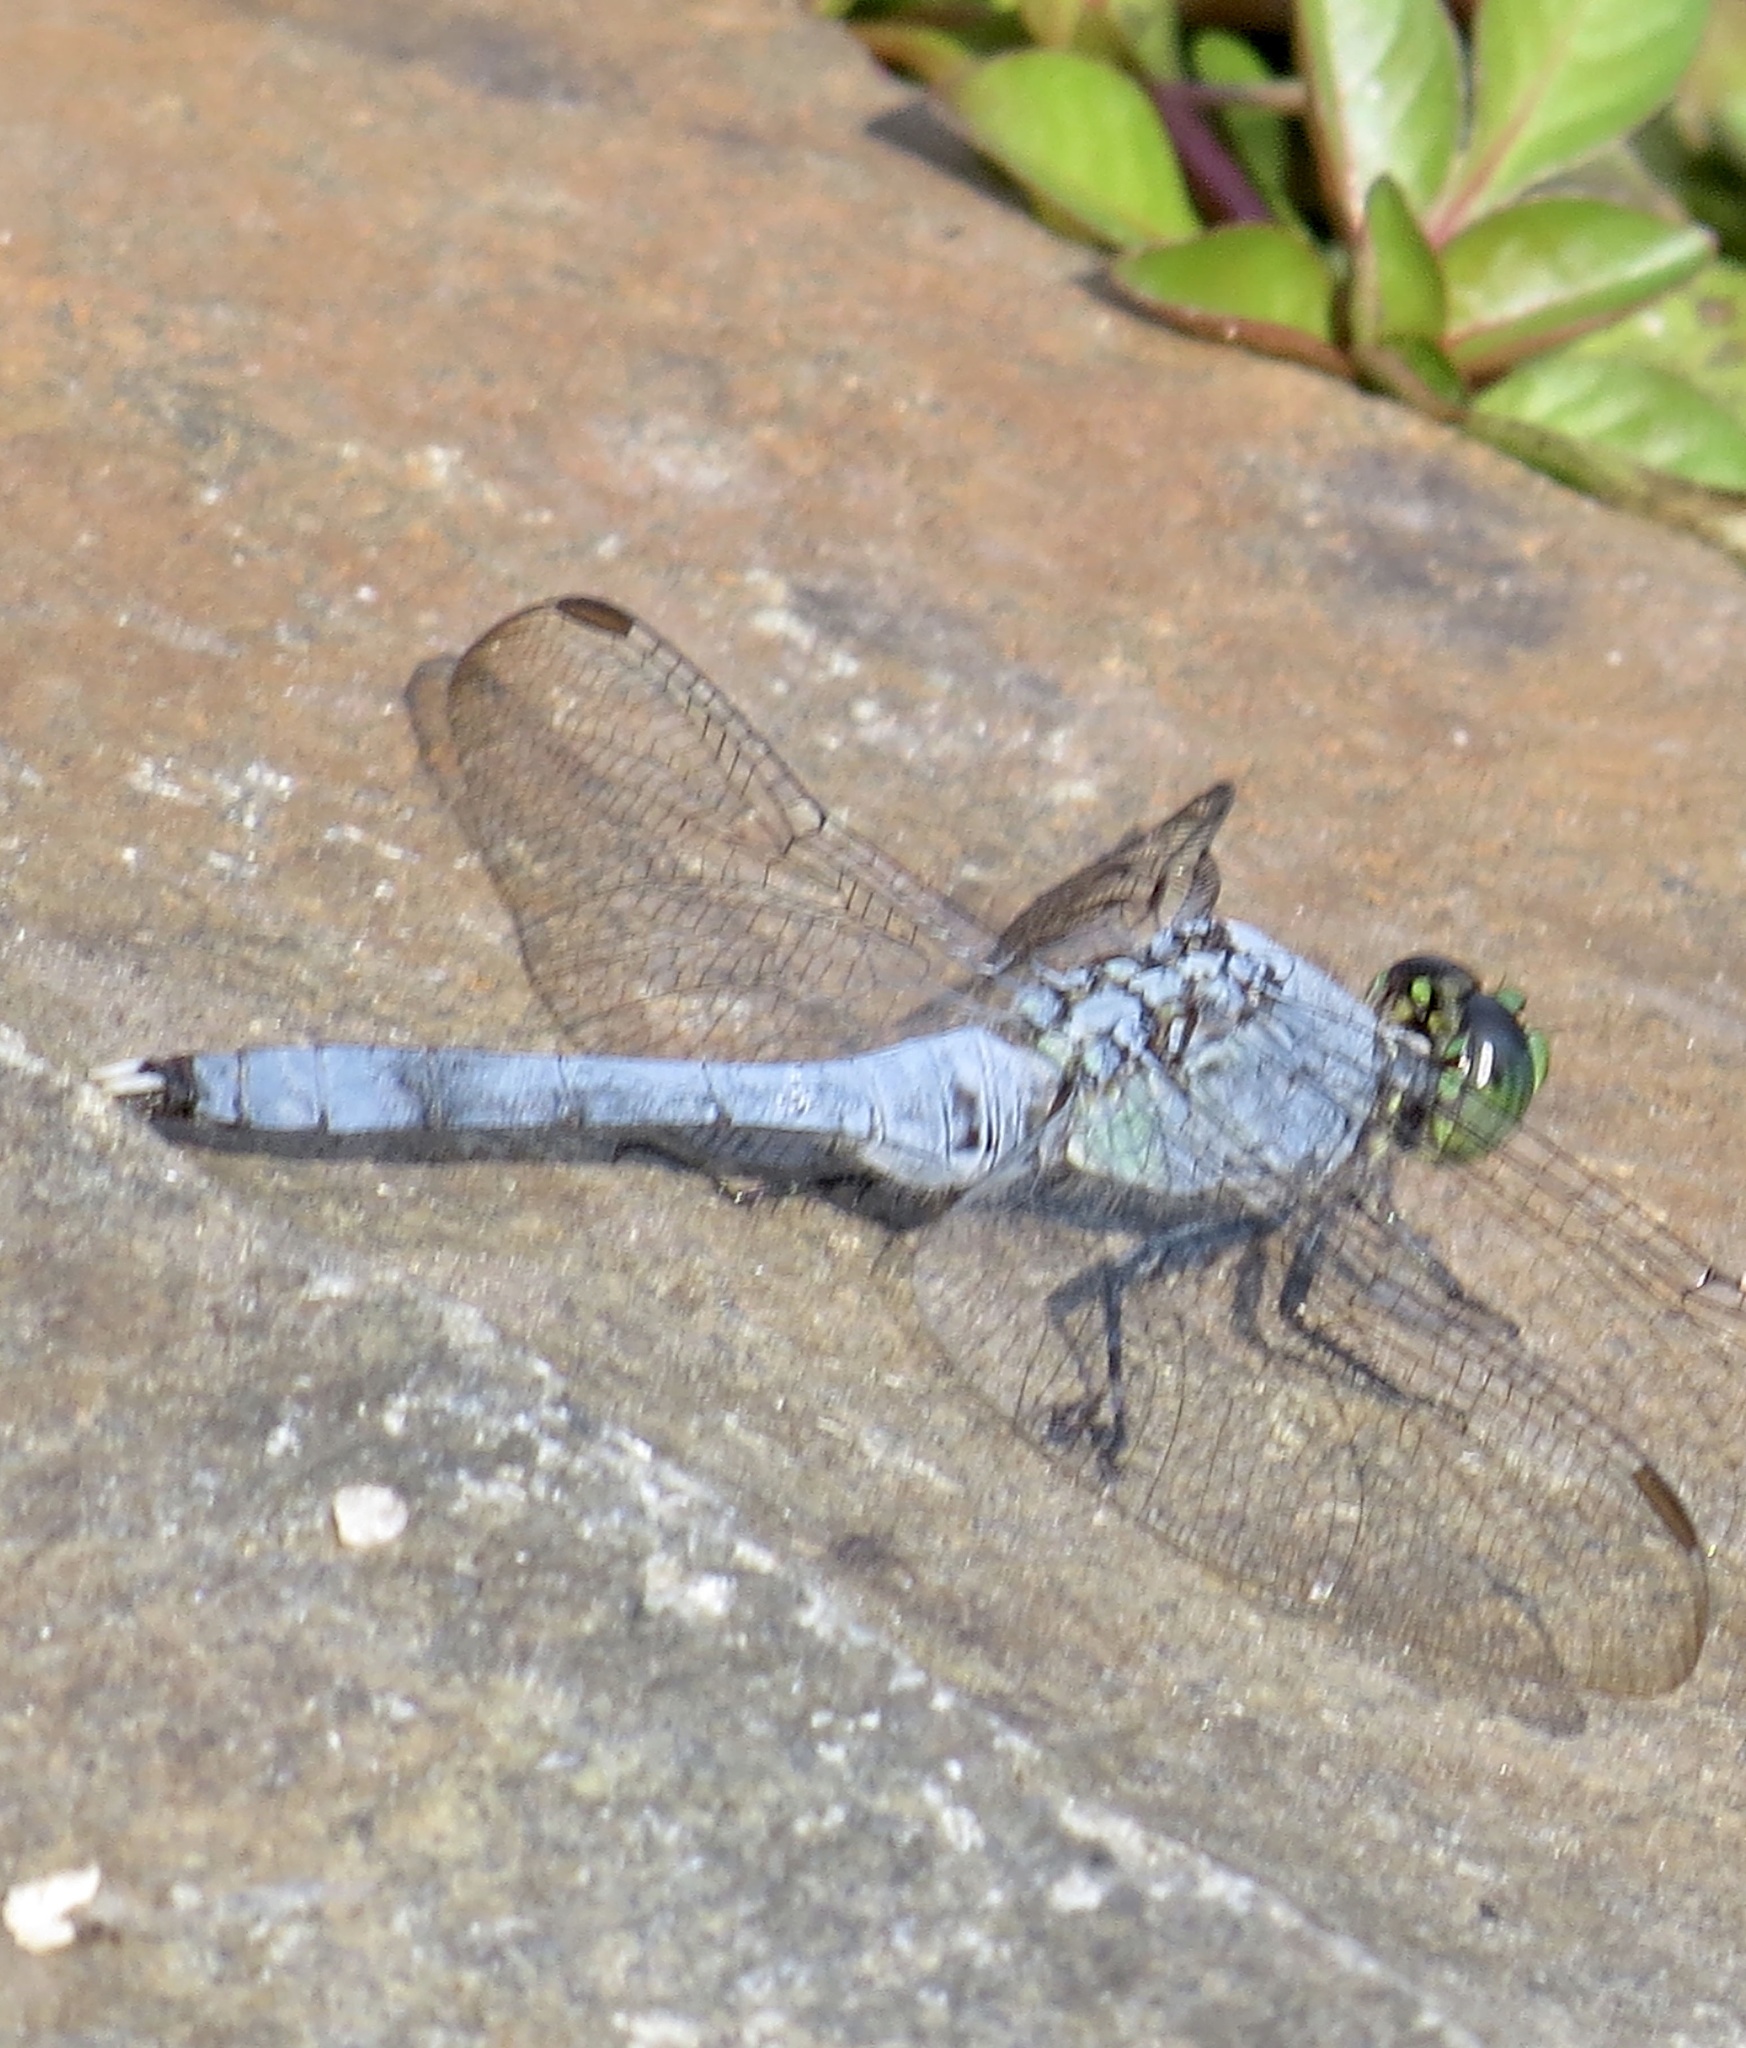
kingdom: Animalia
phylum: Arthropoda
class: Insecta
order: Odonata
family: Libellulidae
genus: Erythemis
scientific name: Erythemis simplicicollis
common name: Eastern pondhawk
